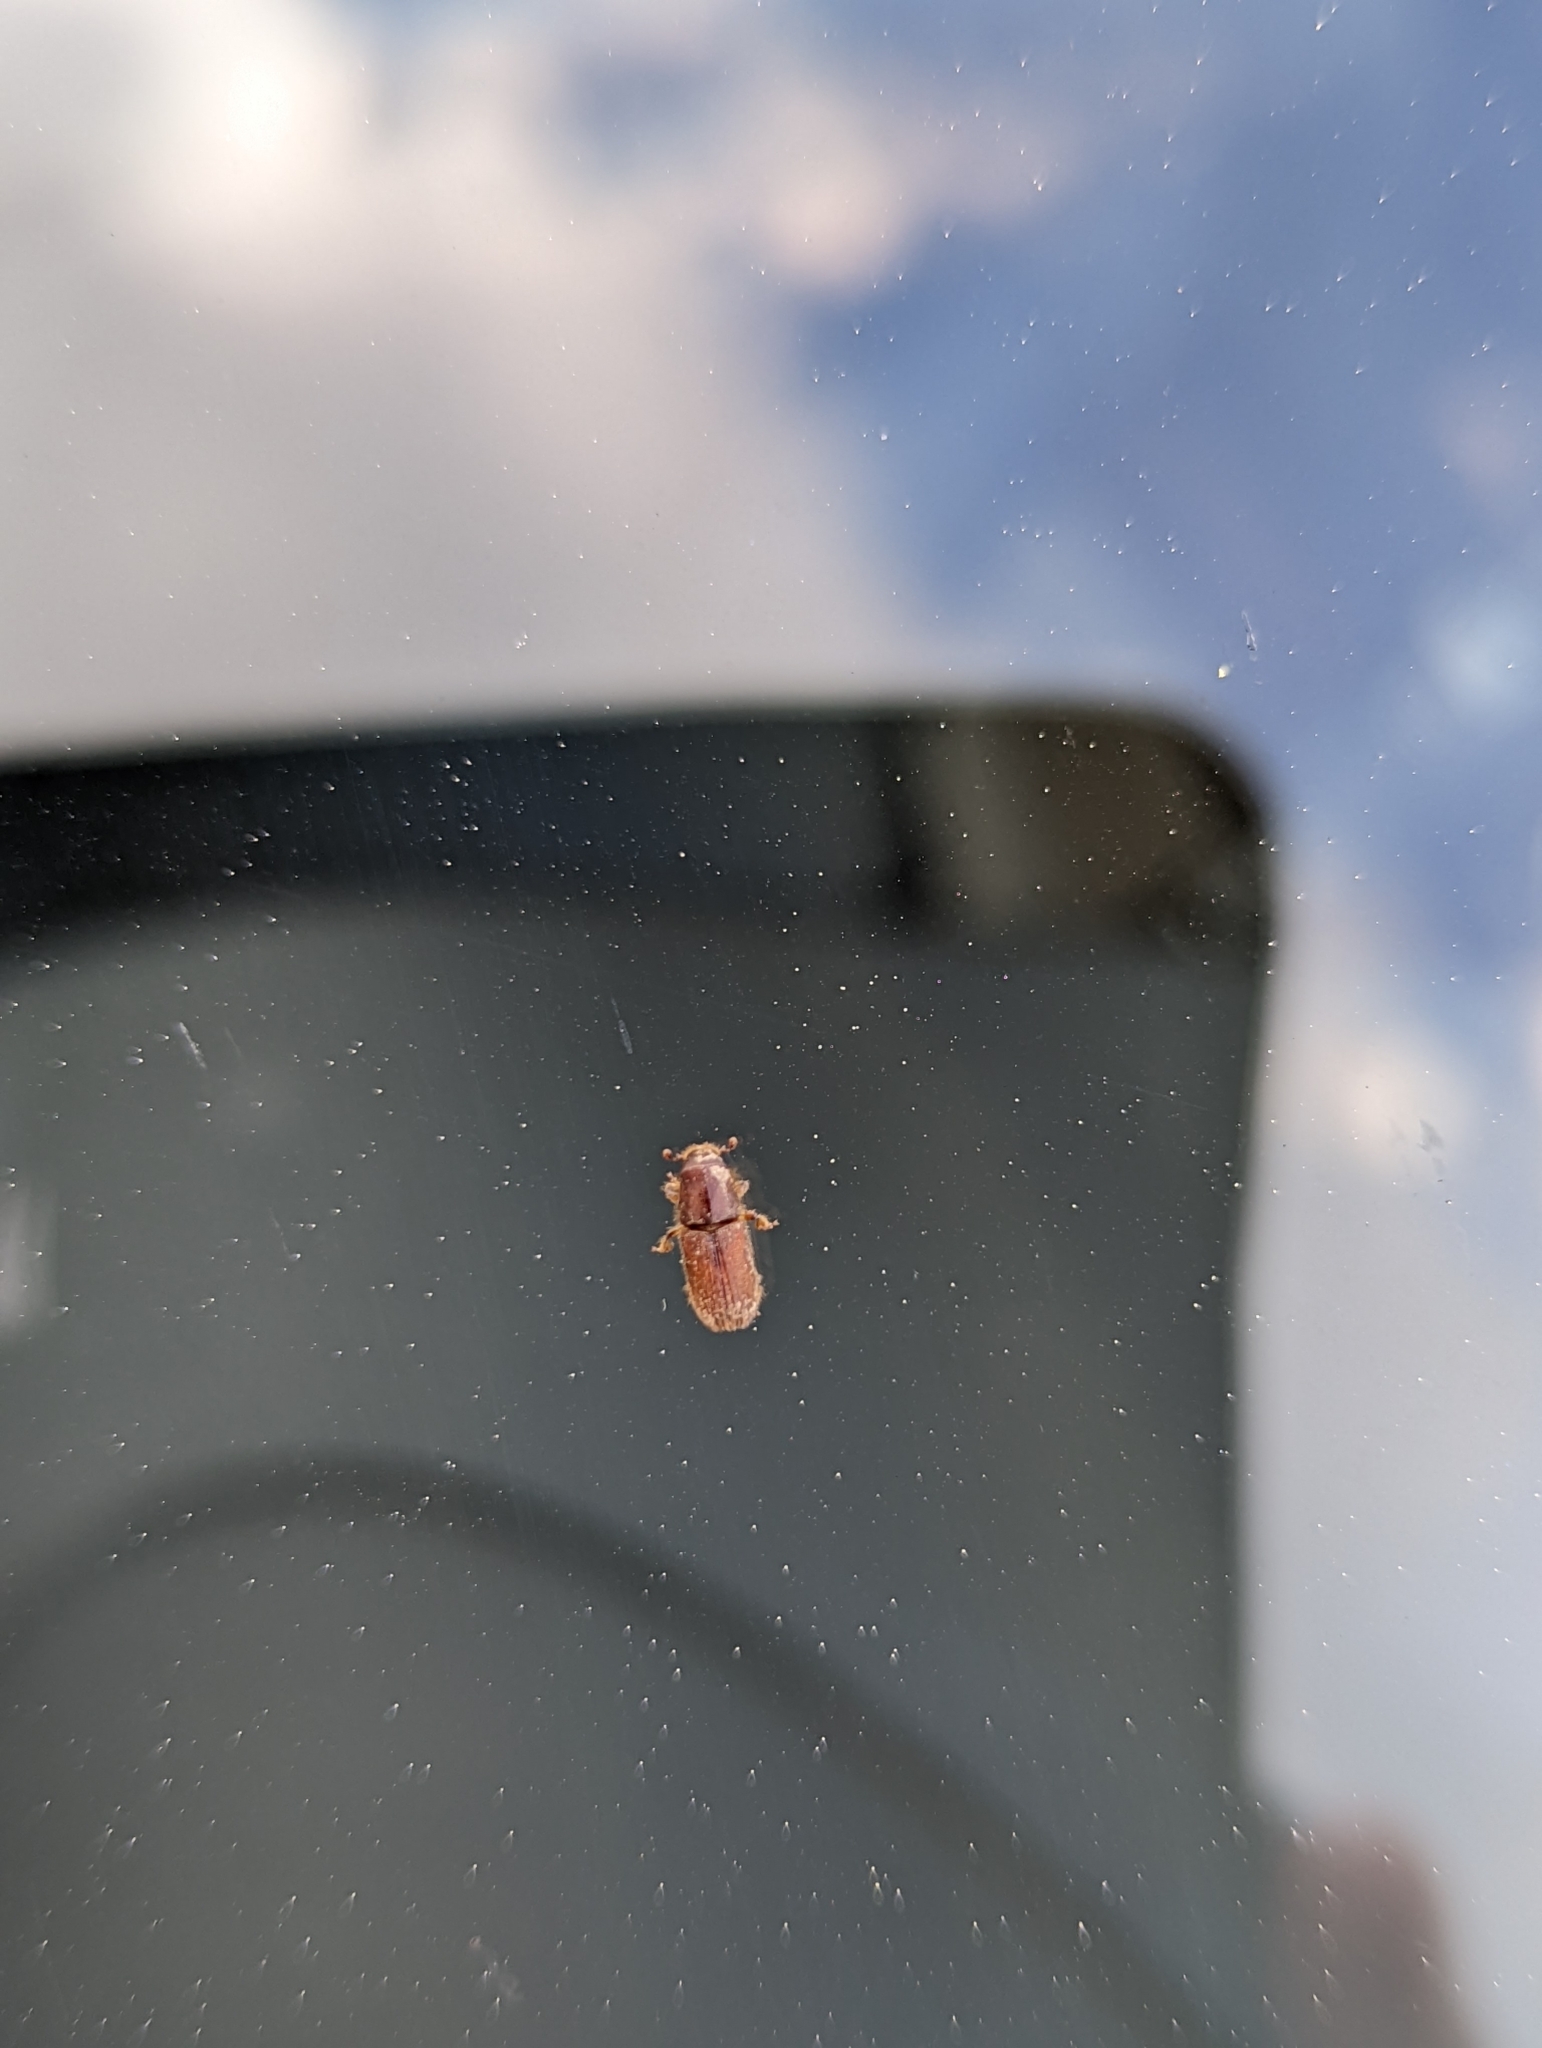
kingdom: Animalia
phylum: Arthropoda
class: Insecta
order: Coleoptera
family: Curculionidae
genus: Hylurgus
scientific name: Hylurgus ligniperda
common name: Goldenhaired bark beetle
